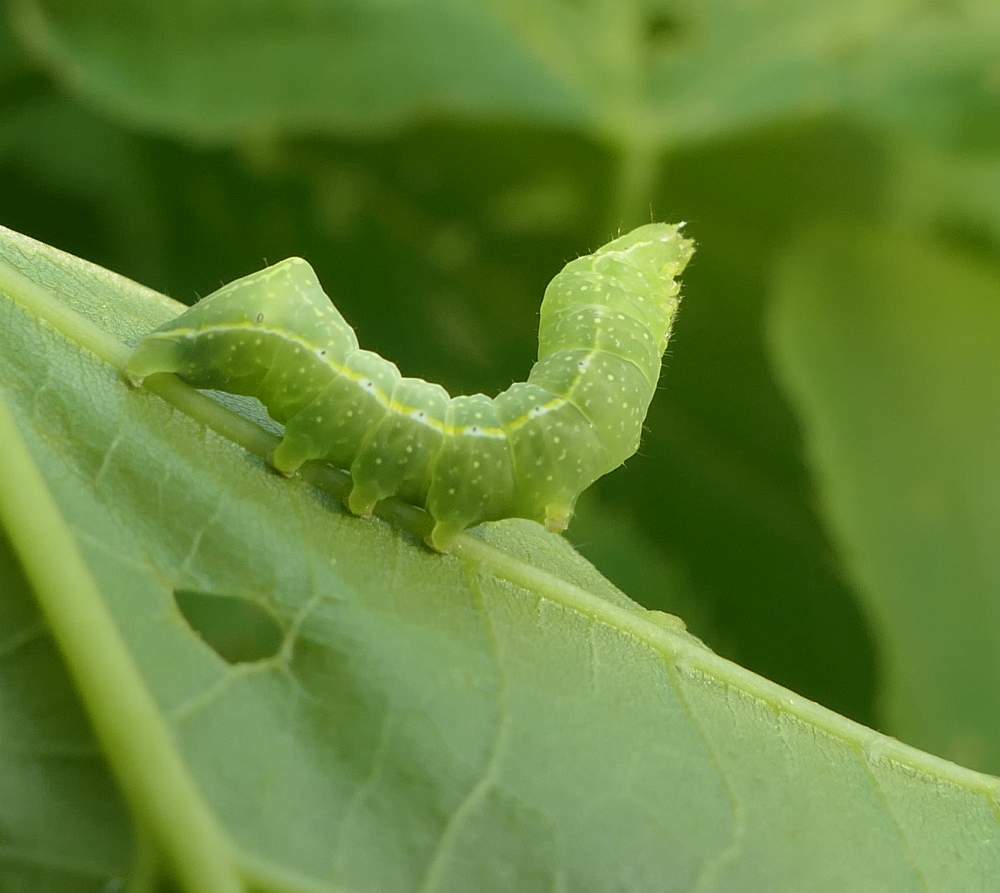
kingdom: Animalia
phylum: Arthropoda
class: Insecta
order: Lepidoptera
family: Noctuidae
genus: Amphipyra
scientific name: Amphipyra pyramidoides
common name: American copper underwing
